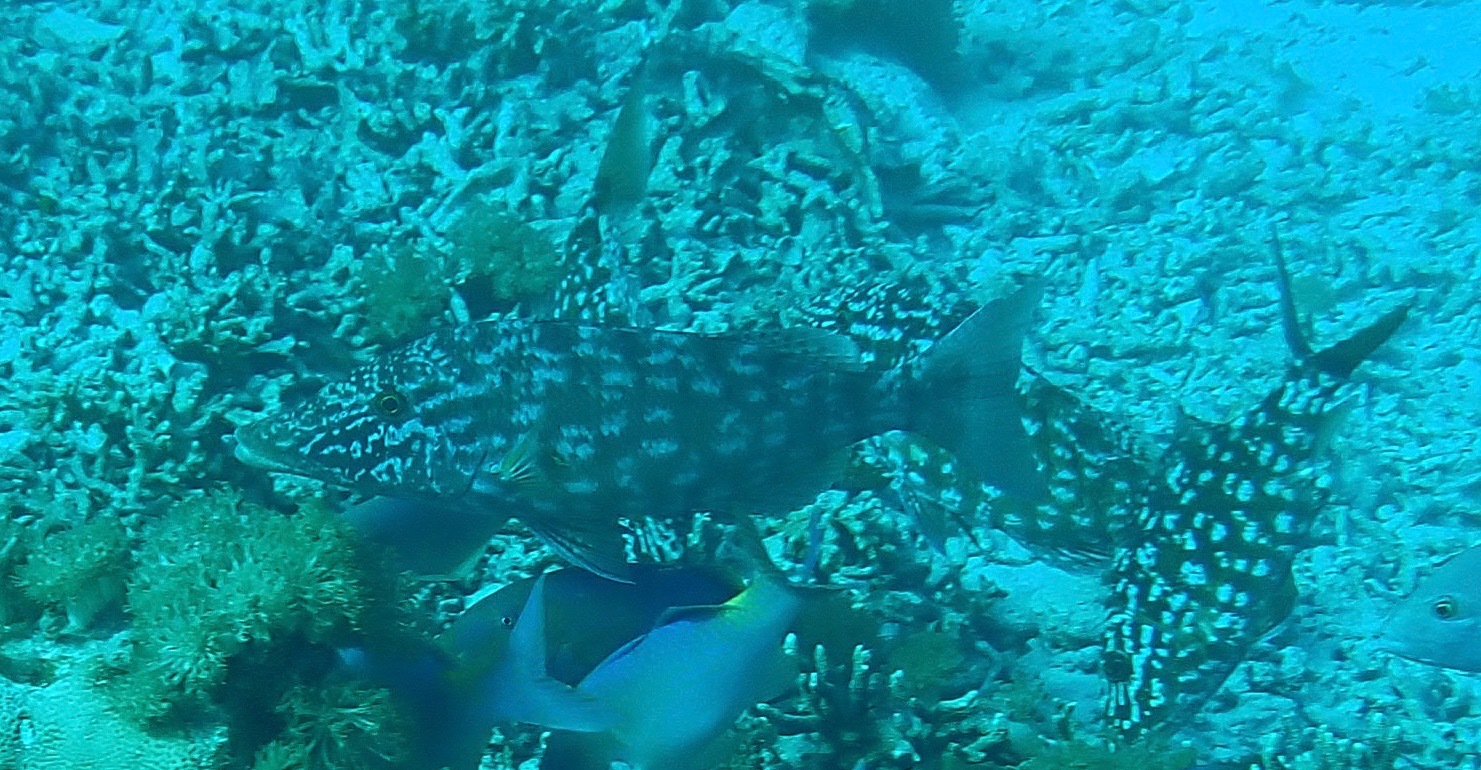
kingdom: Animalia
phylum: Chordata
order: Perciformes
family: Lethrinidae
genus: Lethrinus
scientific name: Lethrinus olivaceus
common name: Longnose emperor
